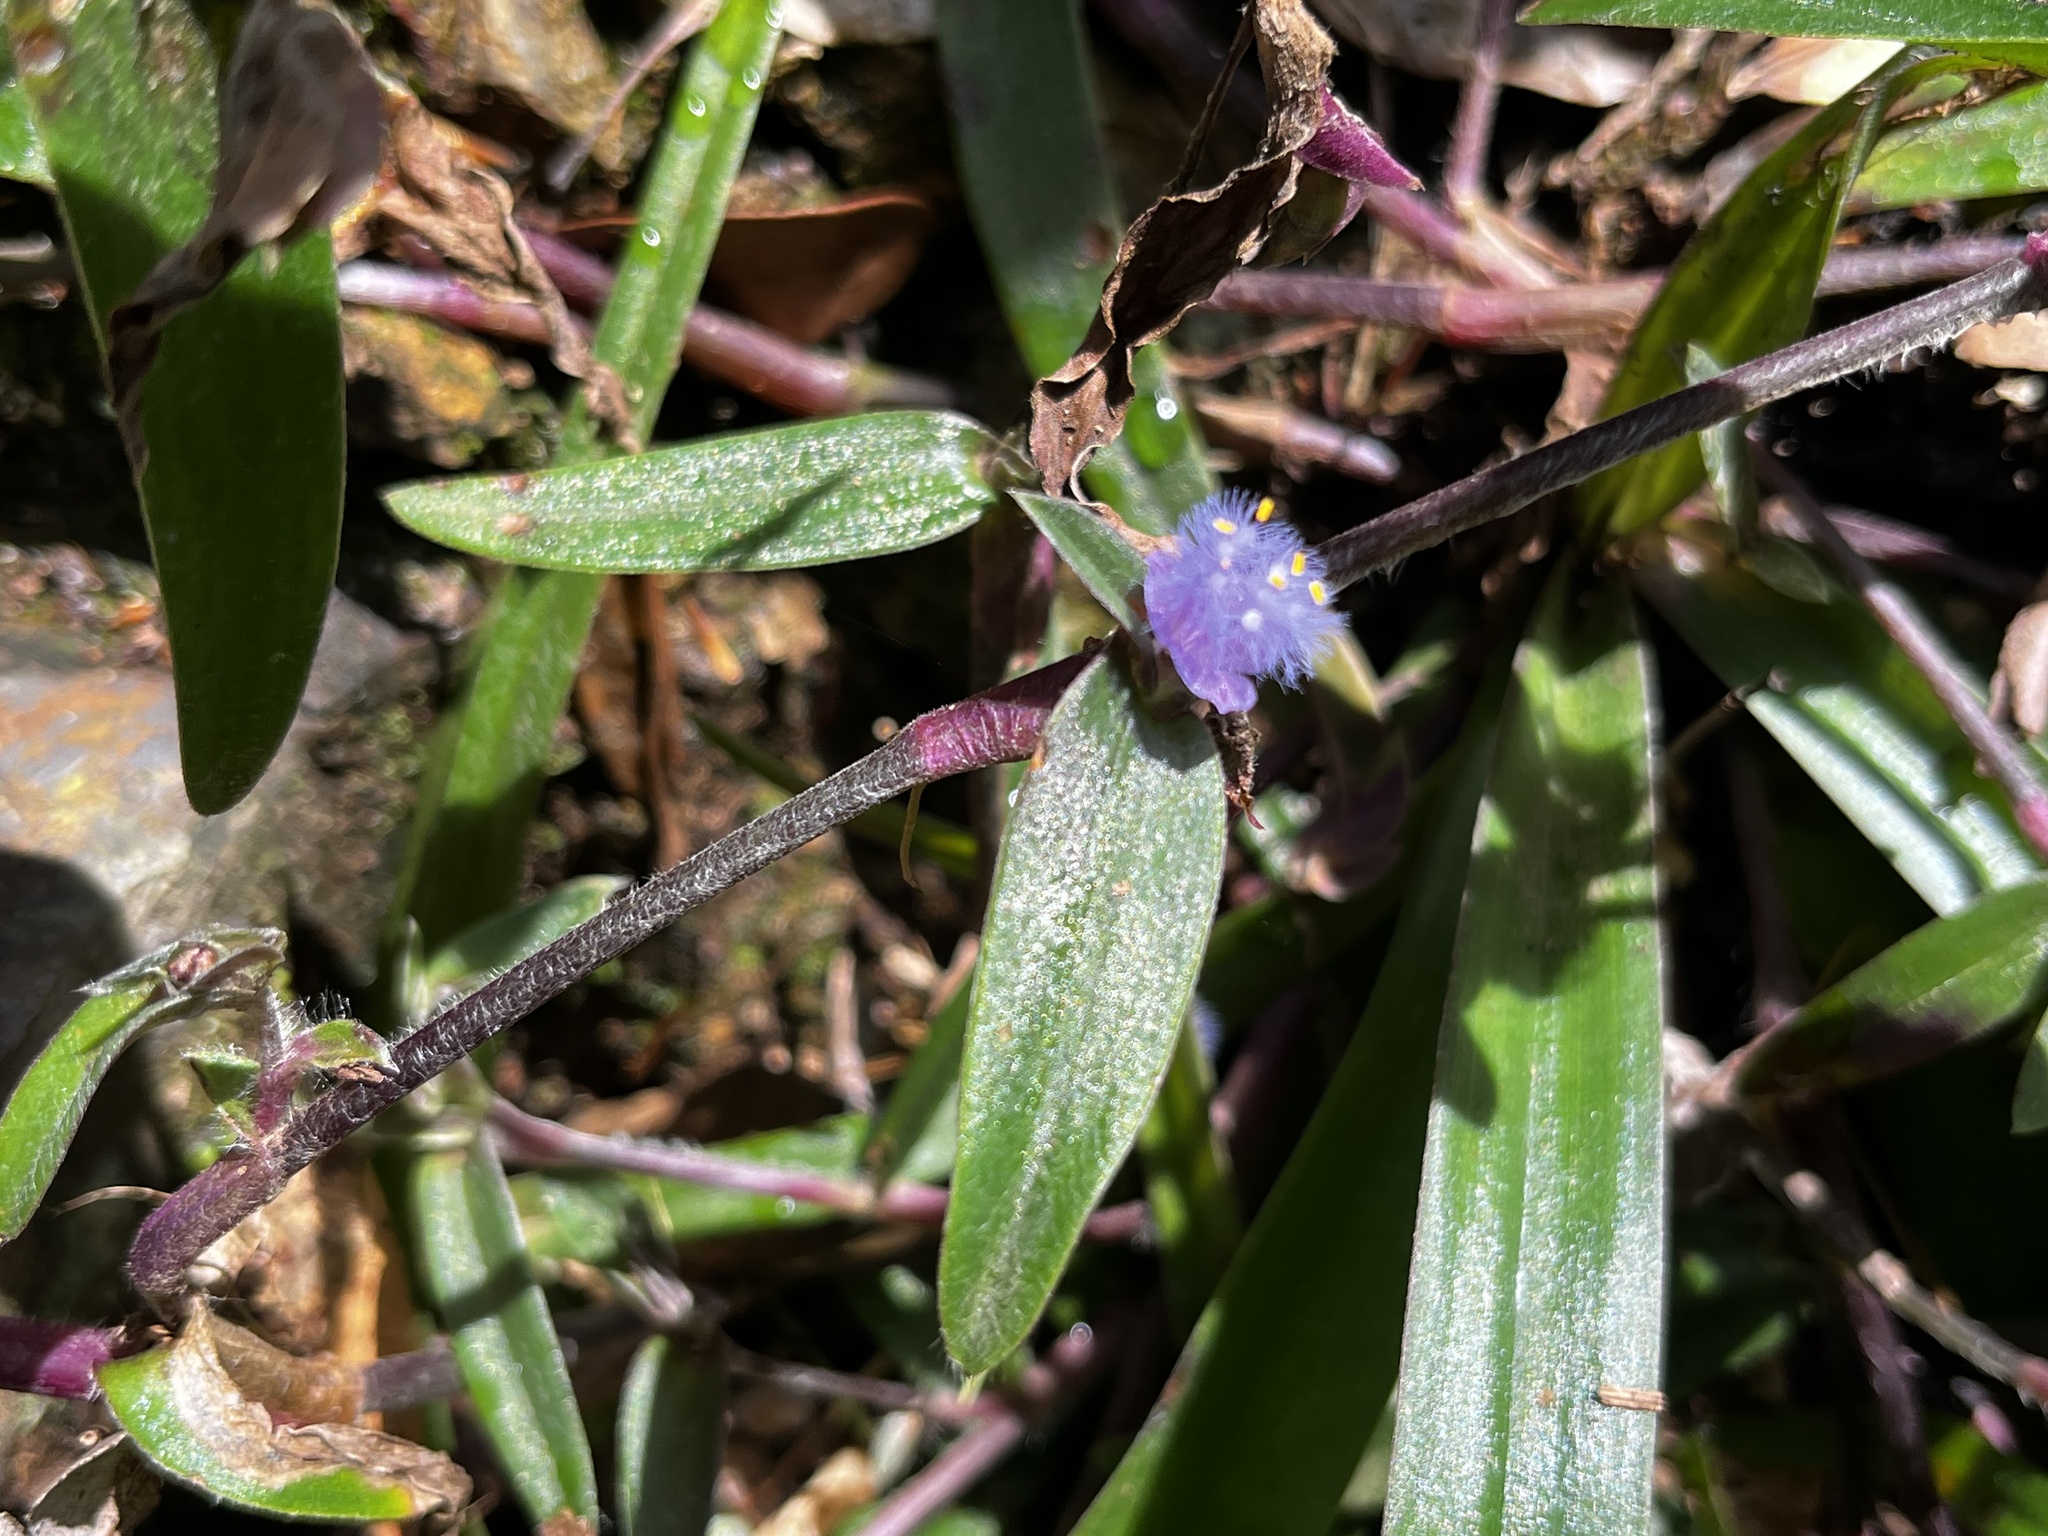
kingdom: Plantae
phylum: Tracheophyta
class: Liliopsida
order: Commelinales
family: Commelinaceae
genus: Cyanotis
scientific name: Cyanotis arachnoidea
